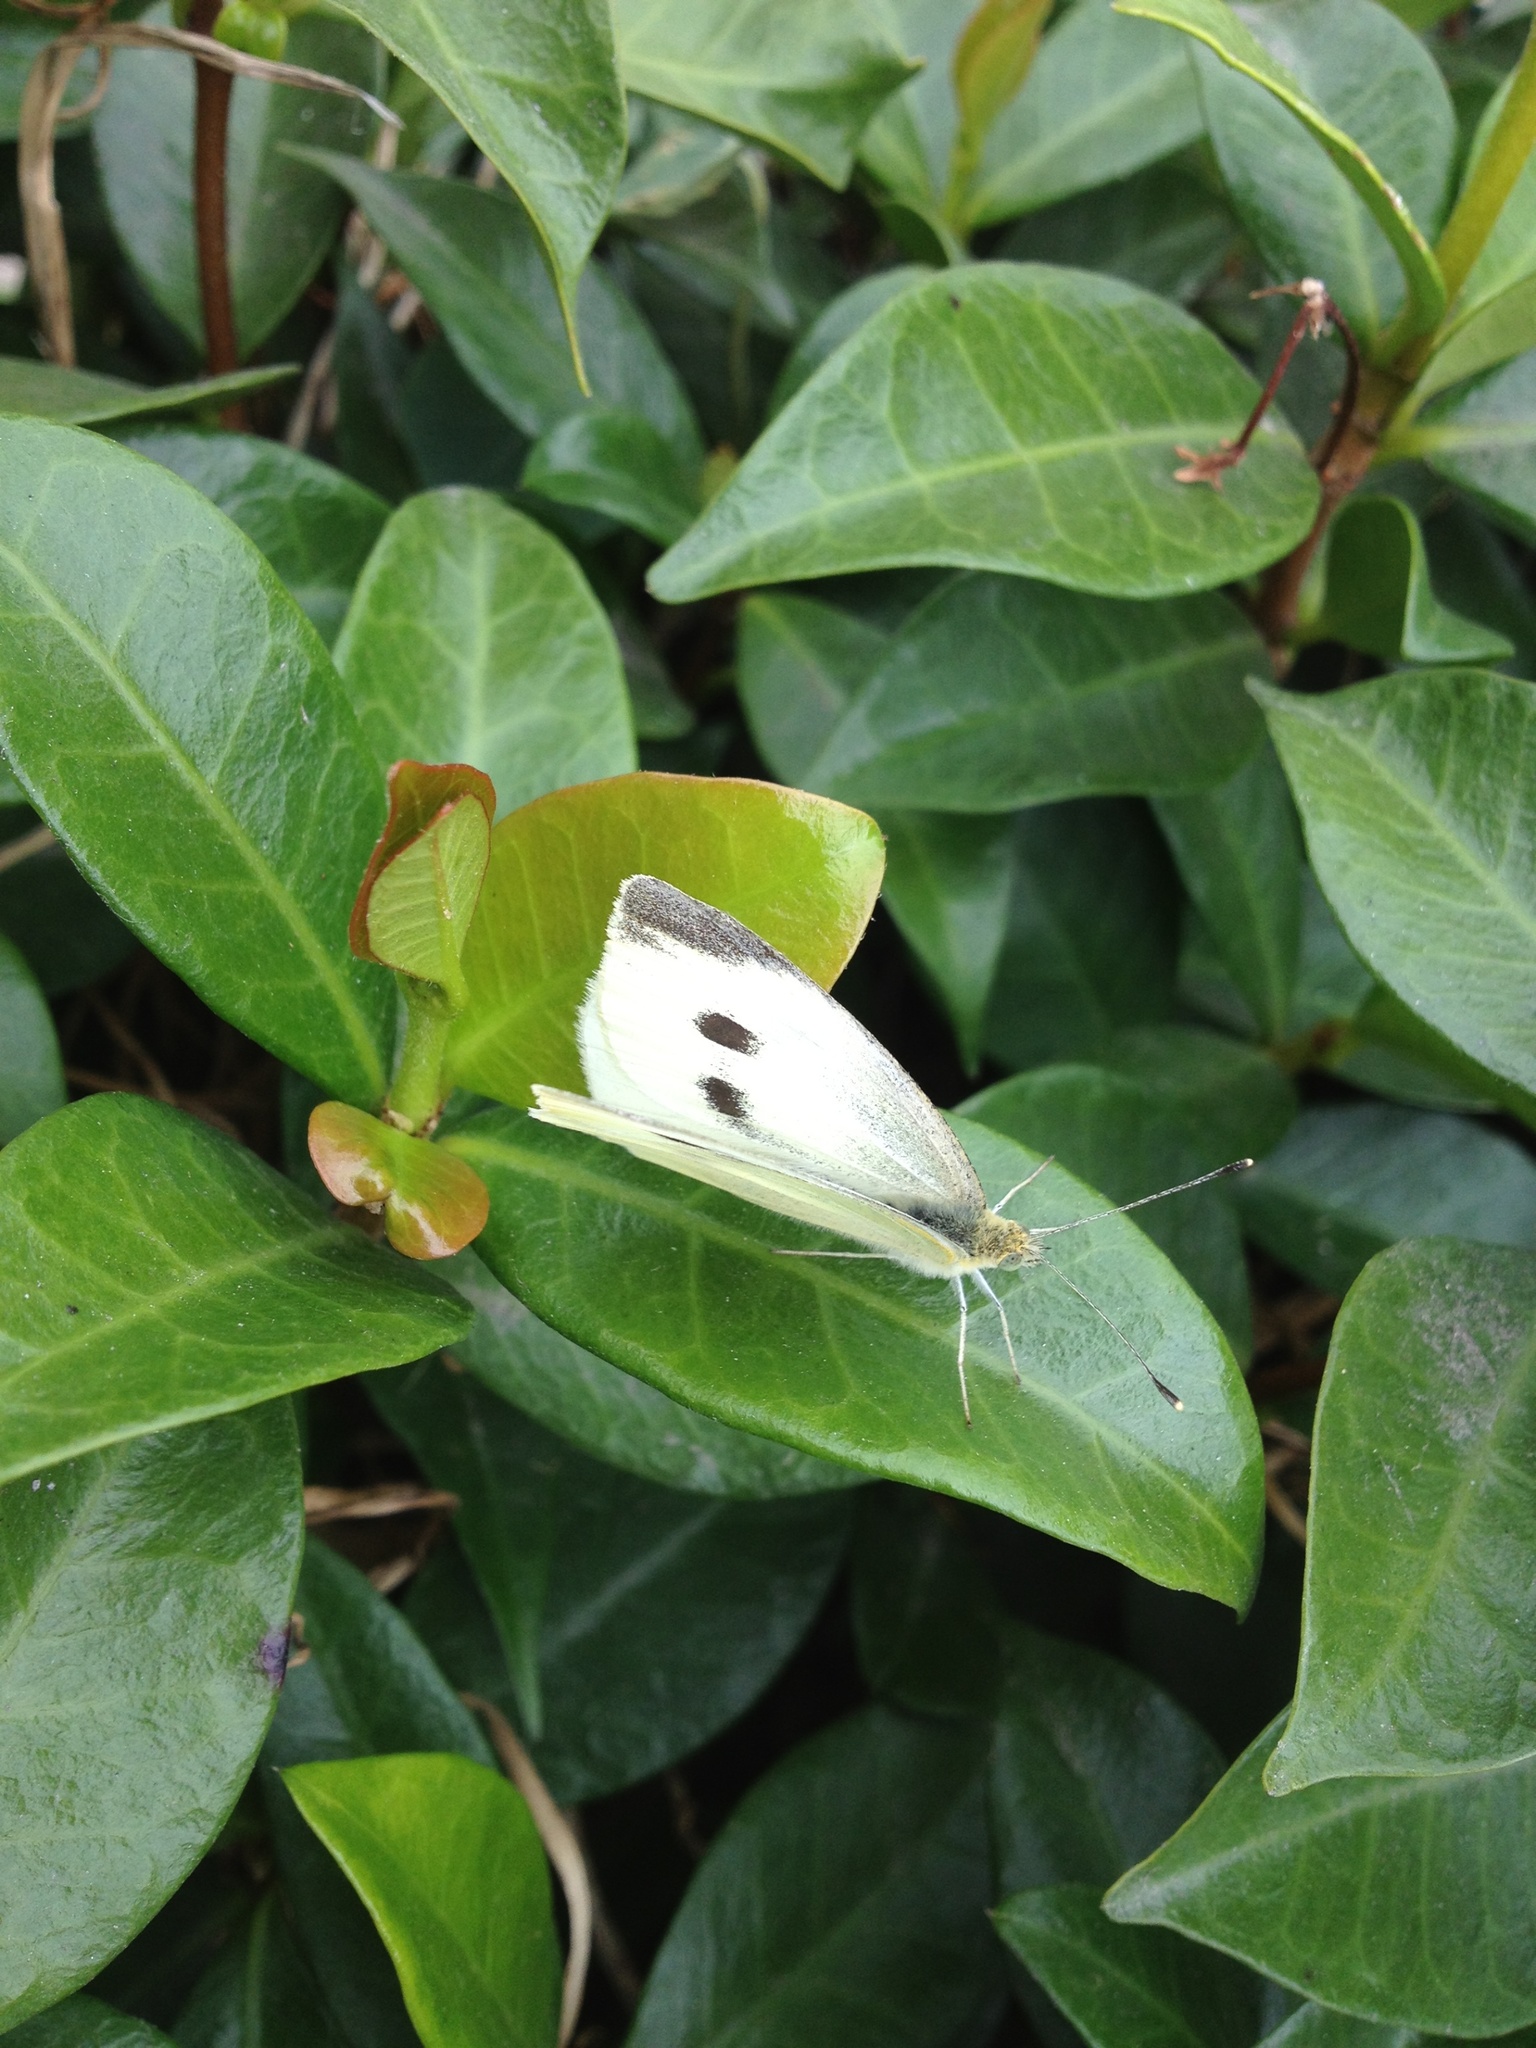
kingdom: Animalia
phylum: Arthropoda
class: Insecta
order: Lepidoptera
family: Pieridae
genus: Pieris
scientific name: Pieris rapae
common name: Small white
